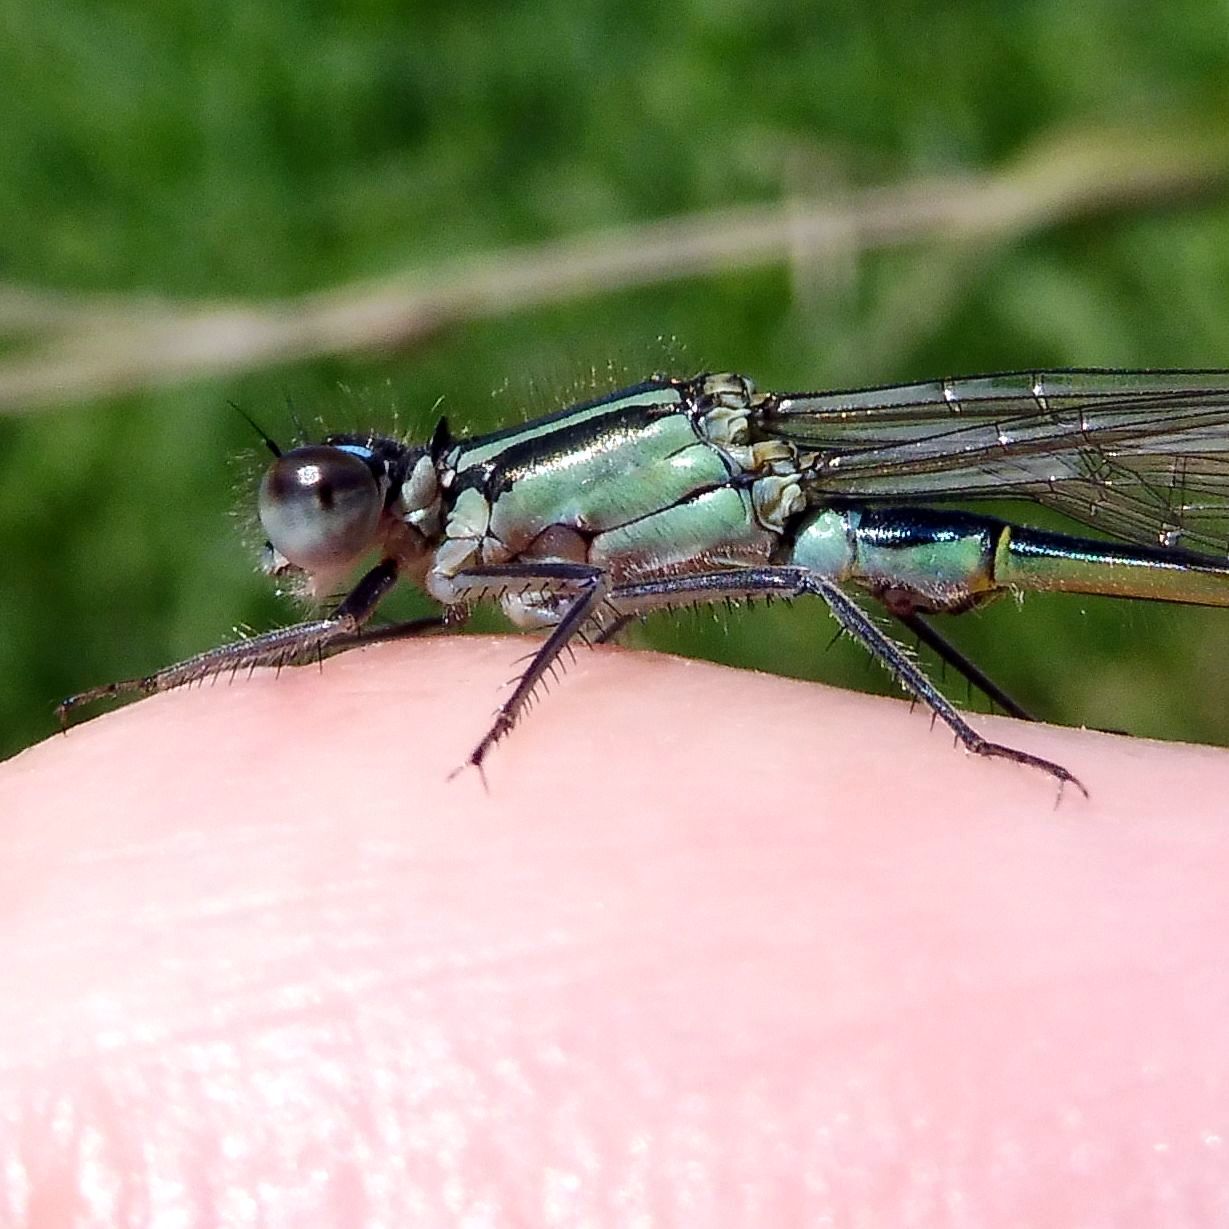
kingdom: Animalia
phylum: Arthropoda
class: Insecta
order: Odonata
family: Coenagrionidae
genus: Ischnura
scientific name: Ischnura elegans
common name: Blue-tailed damselfly
